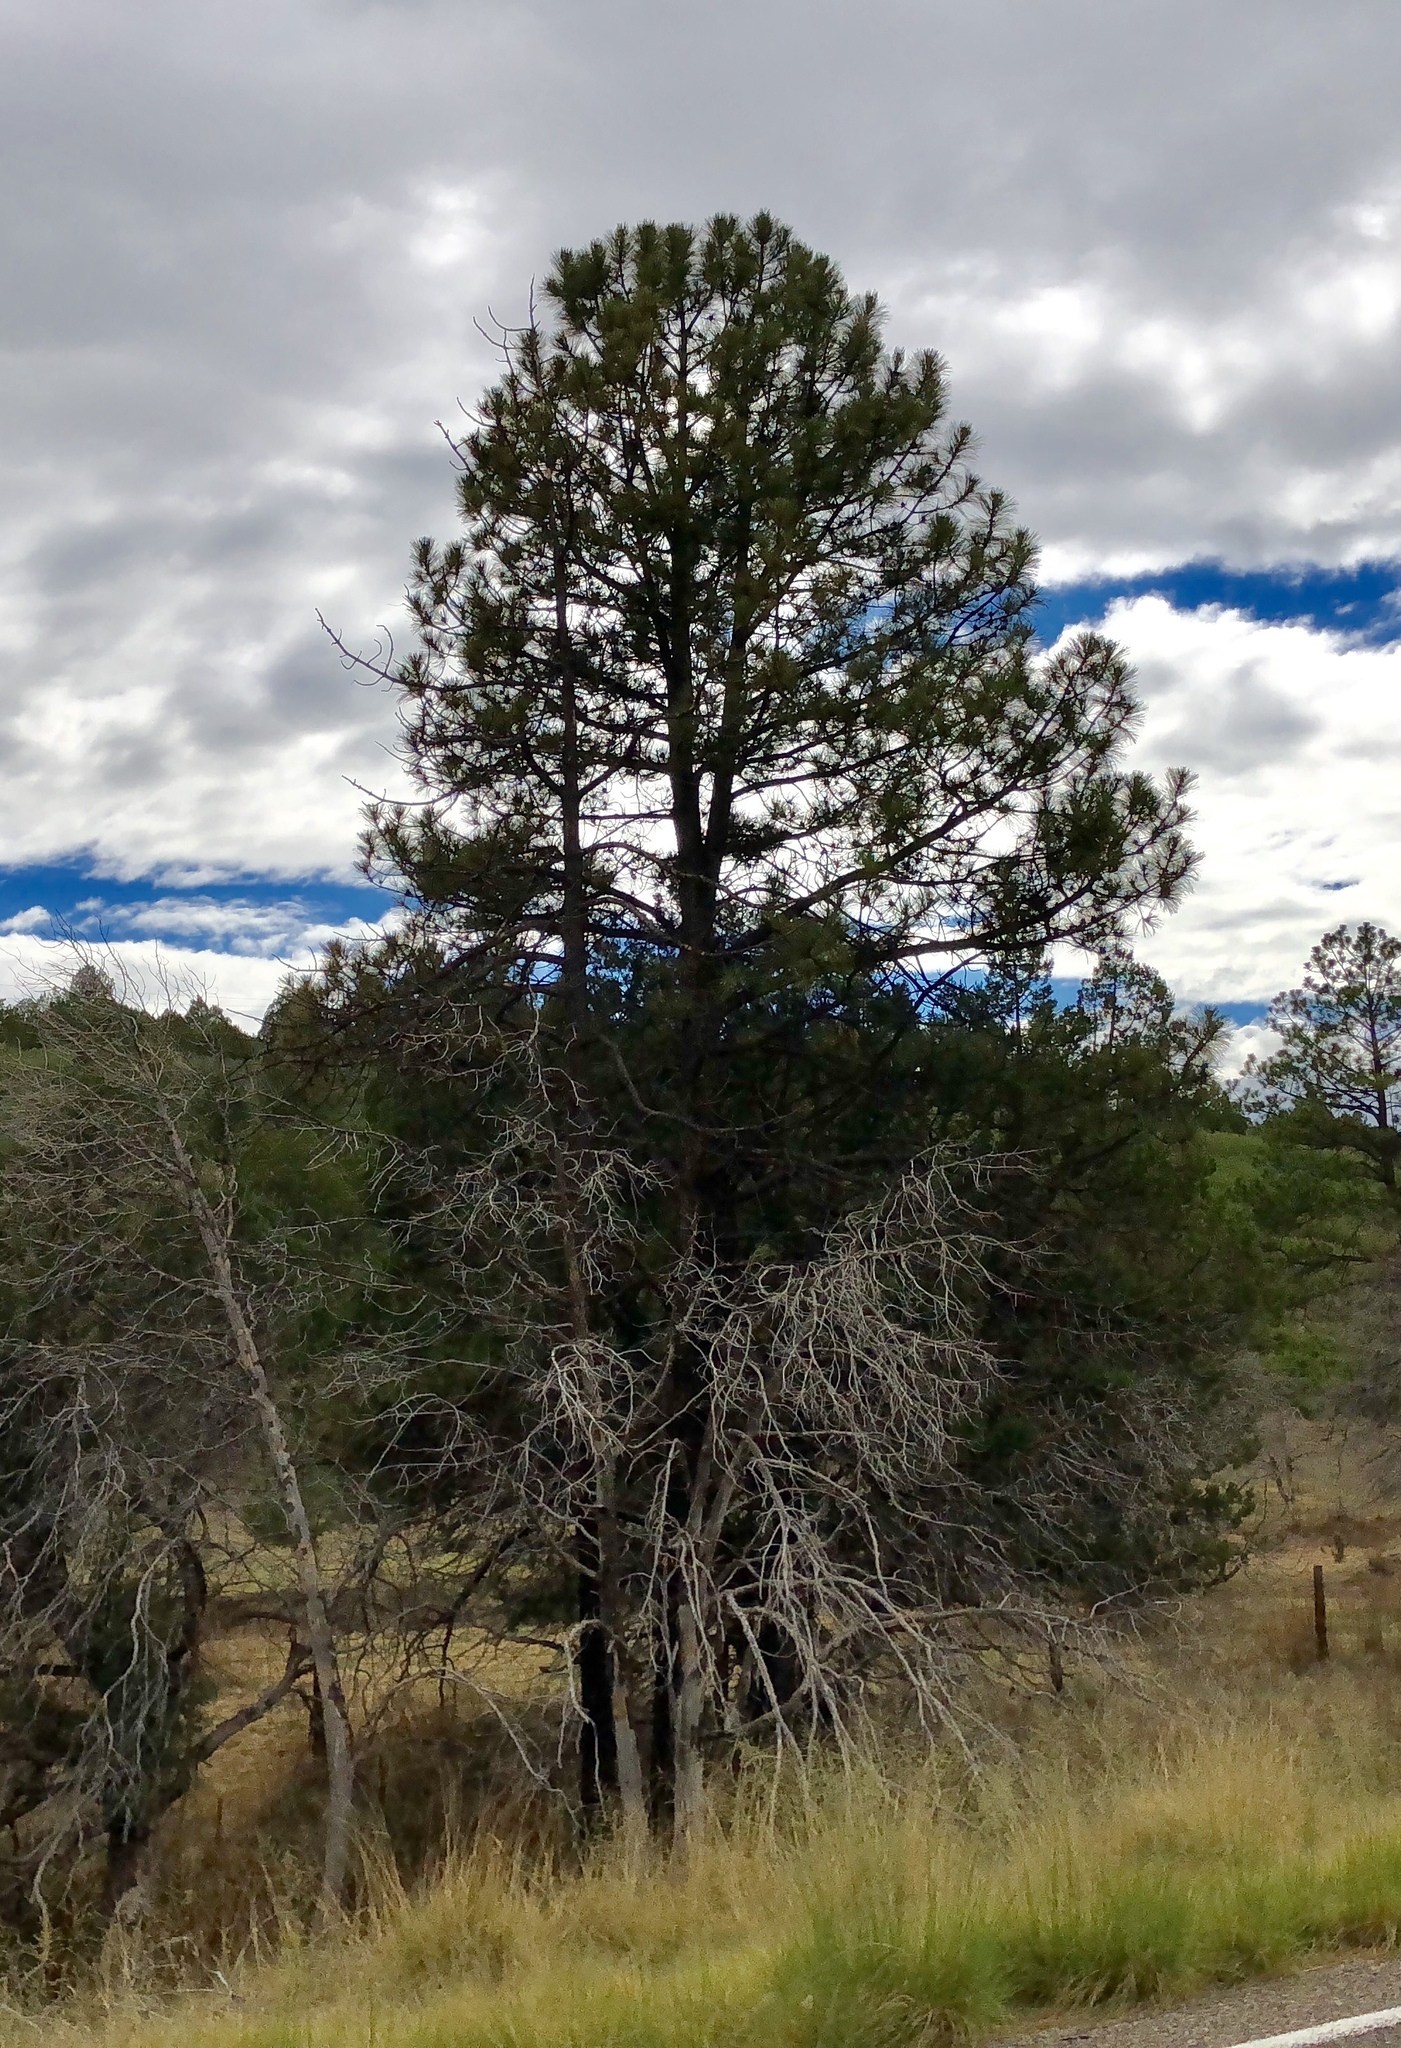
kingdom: Plantae
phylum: Tracheophyta
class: Pinopsida
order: Pinales
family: Pinaceae
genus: Pinus
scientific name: Pinus ponderosa
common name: Western yellow-pine
